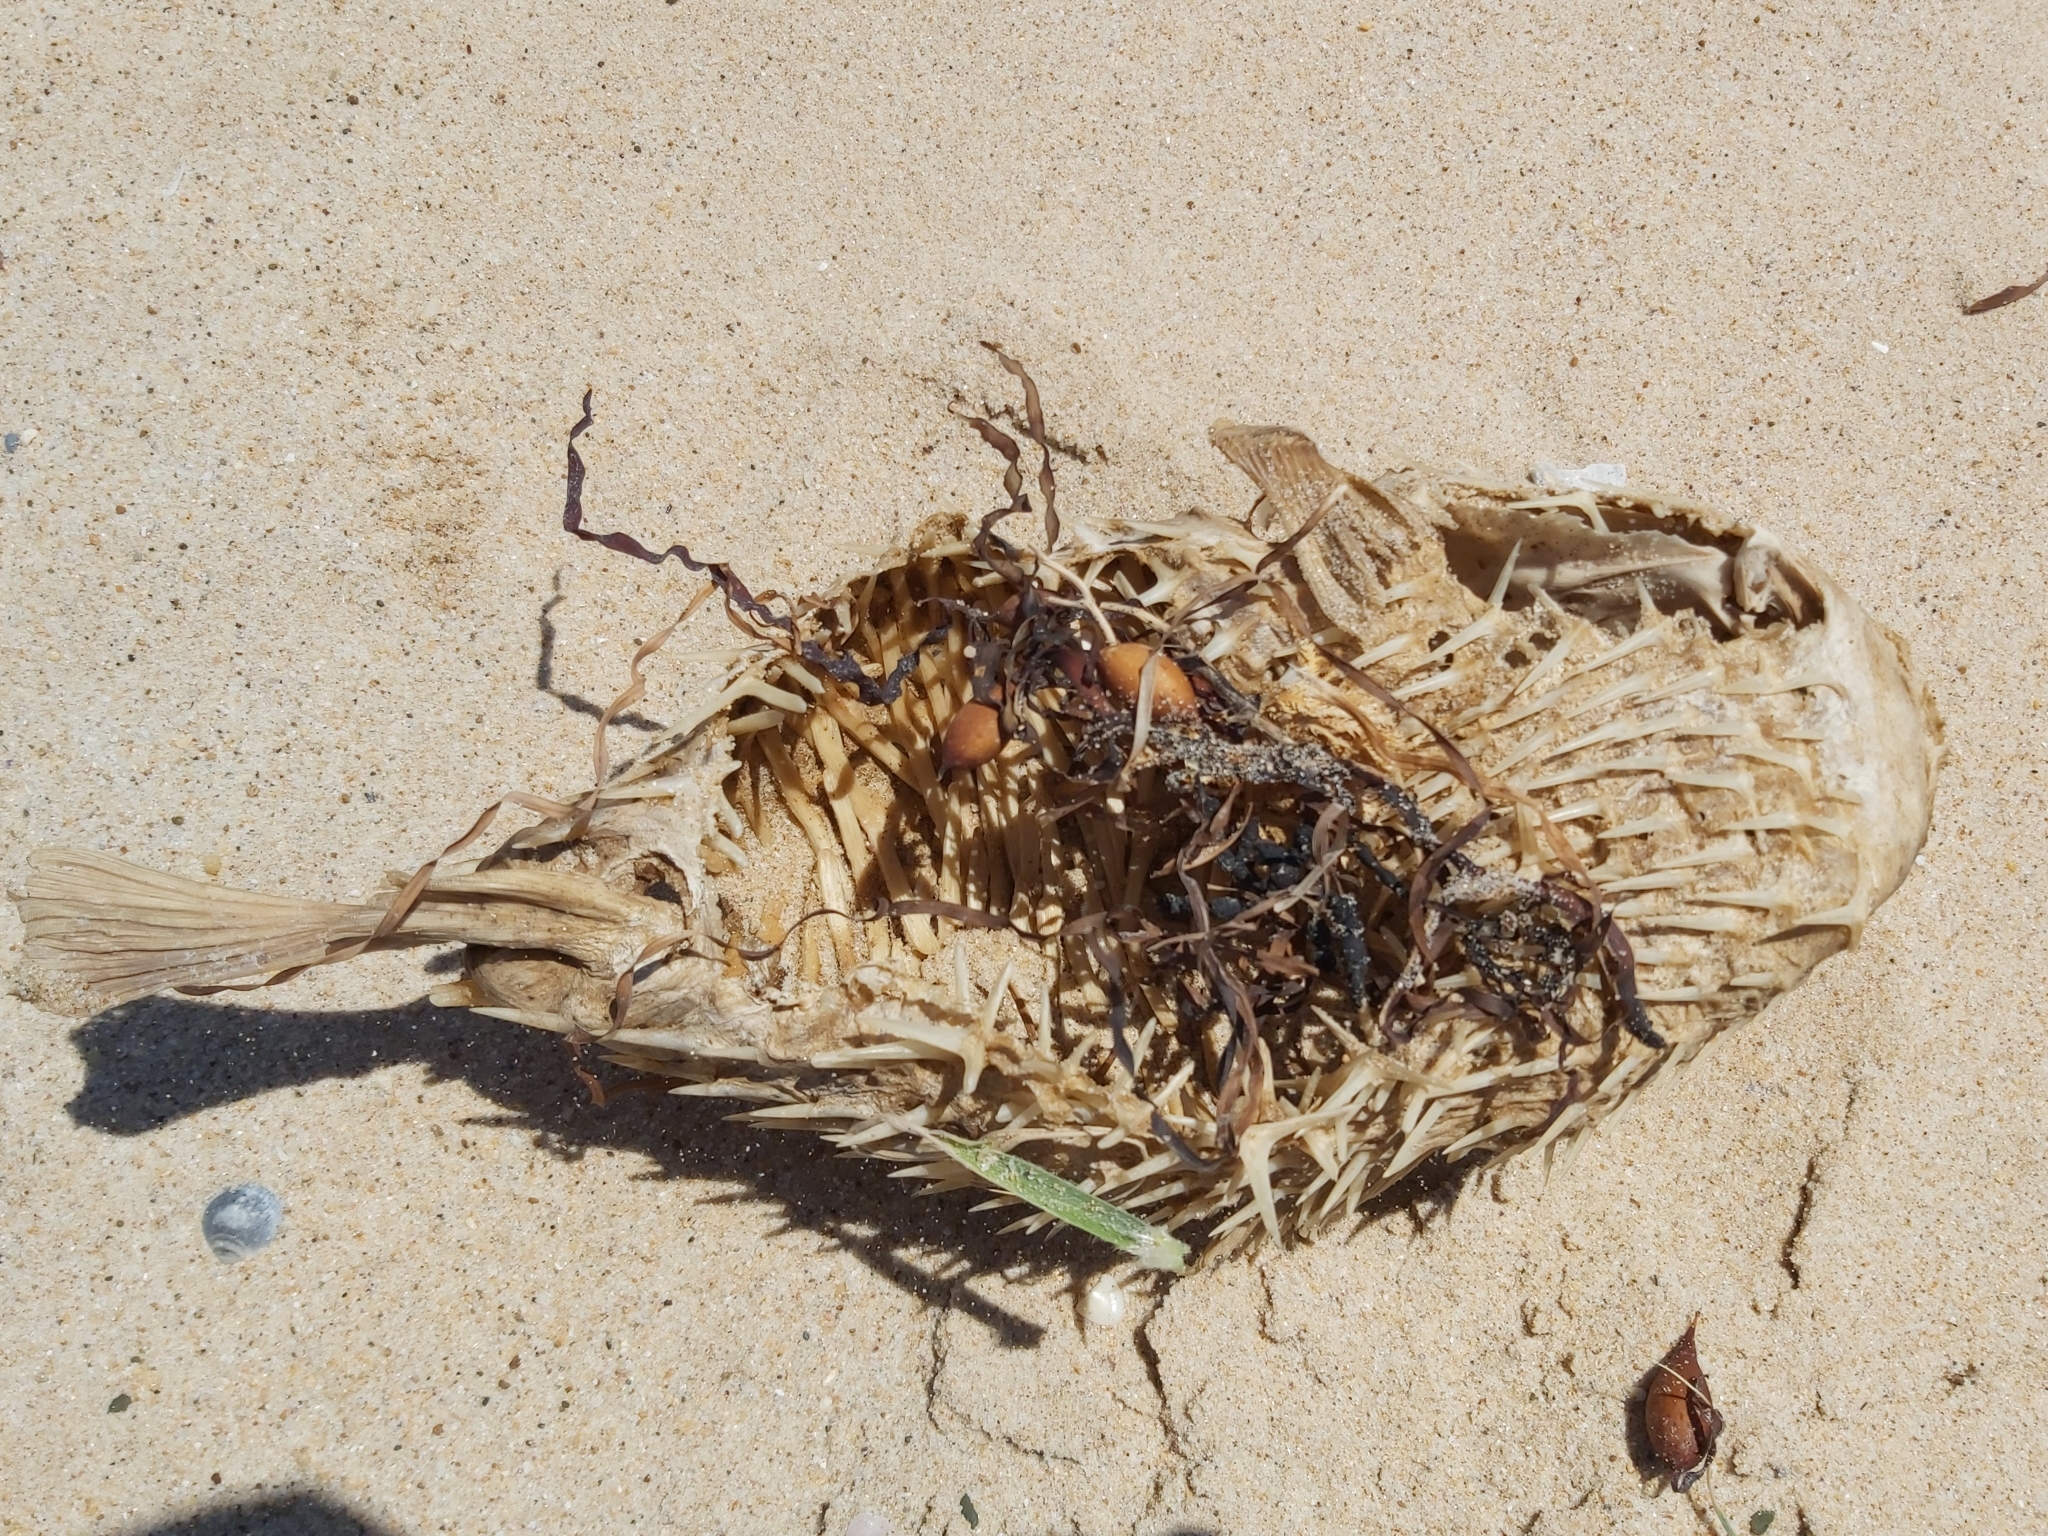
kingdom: Animalia
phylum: Chordata
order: Tetraodontiformes
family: Diodontidae
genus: Dicotylichthys
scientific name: Dicotylichthys punctulatus
